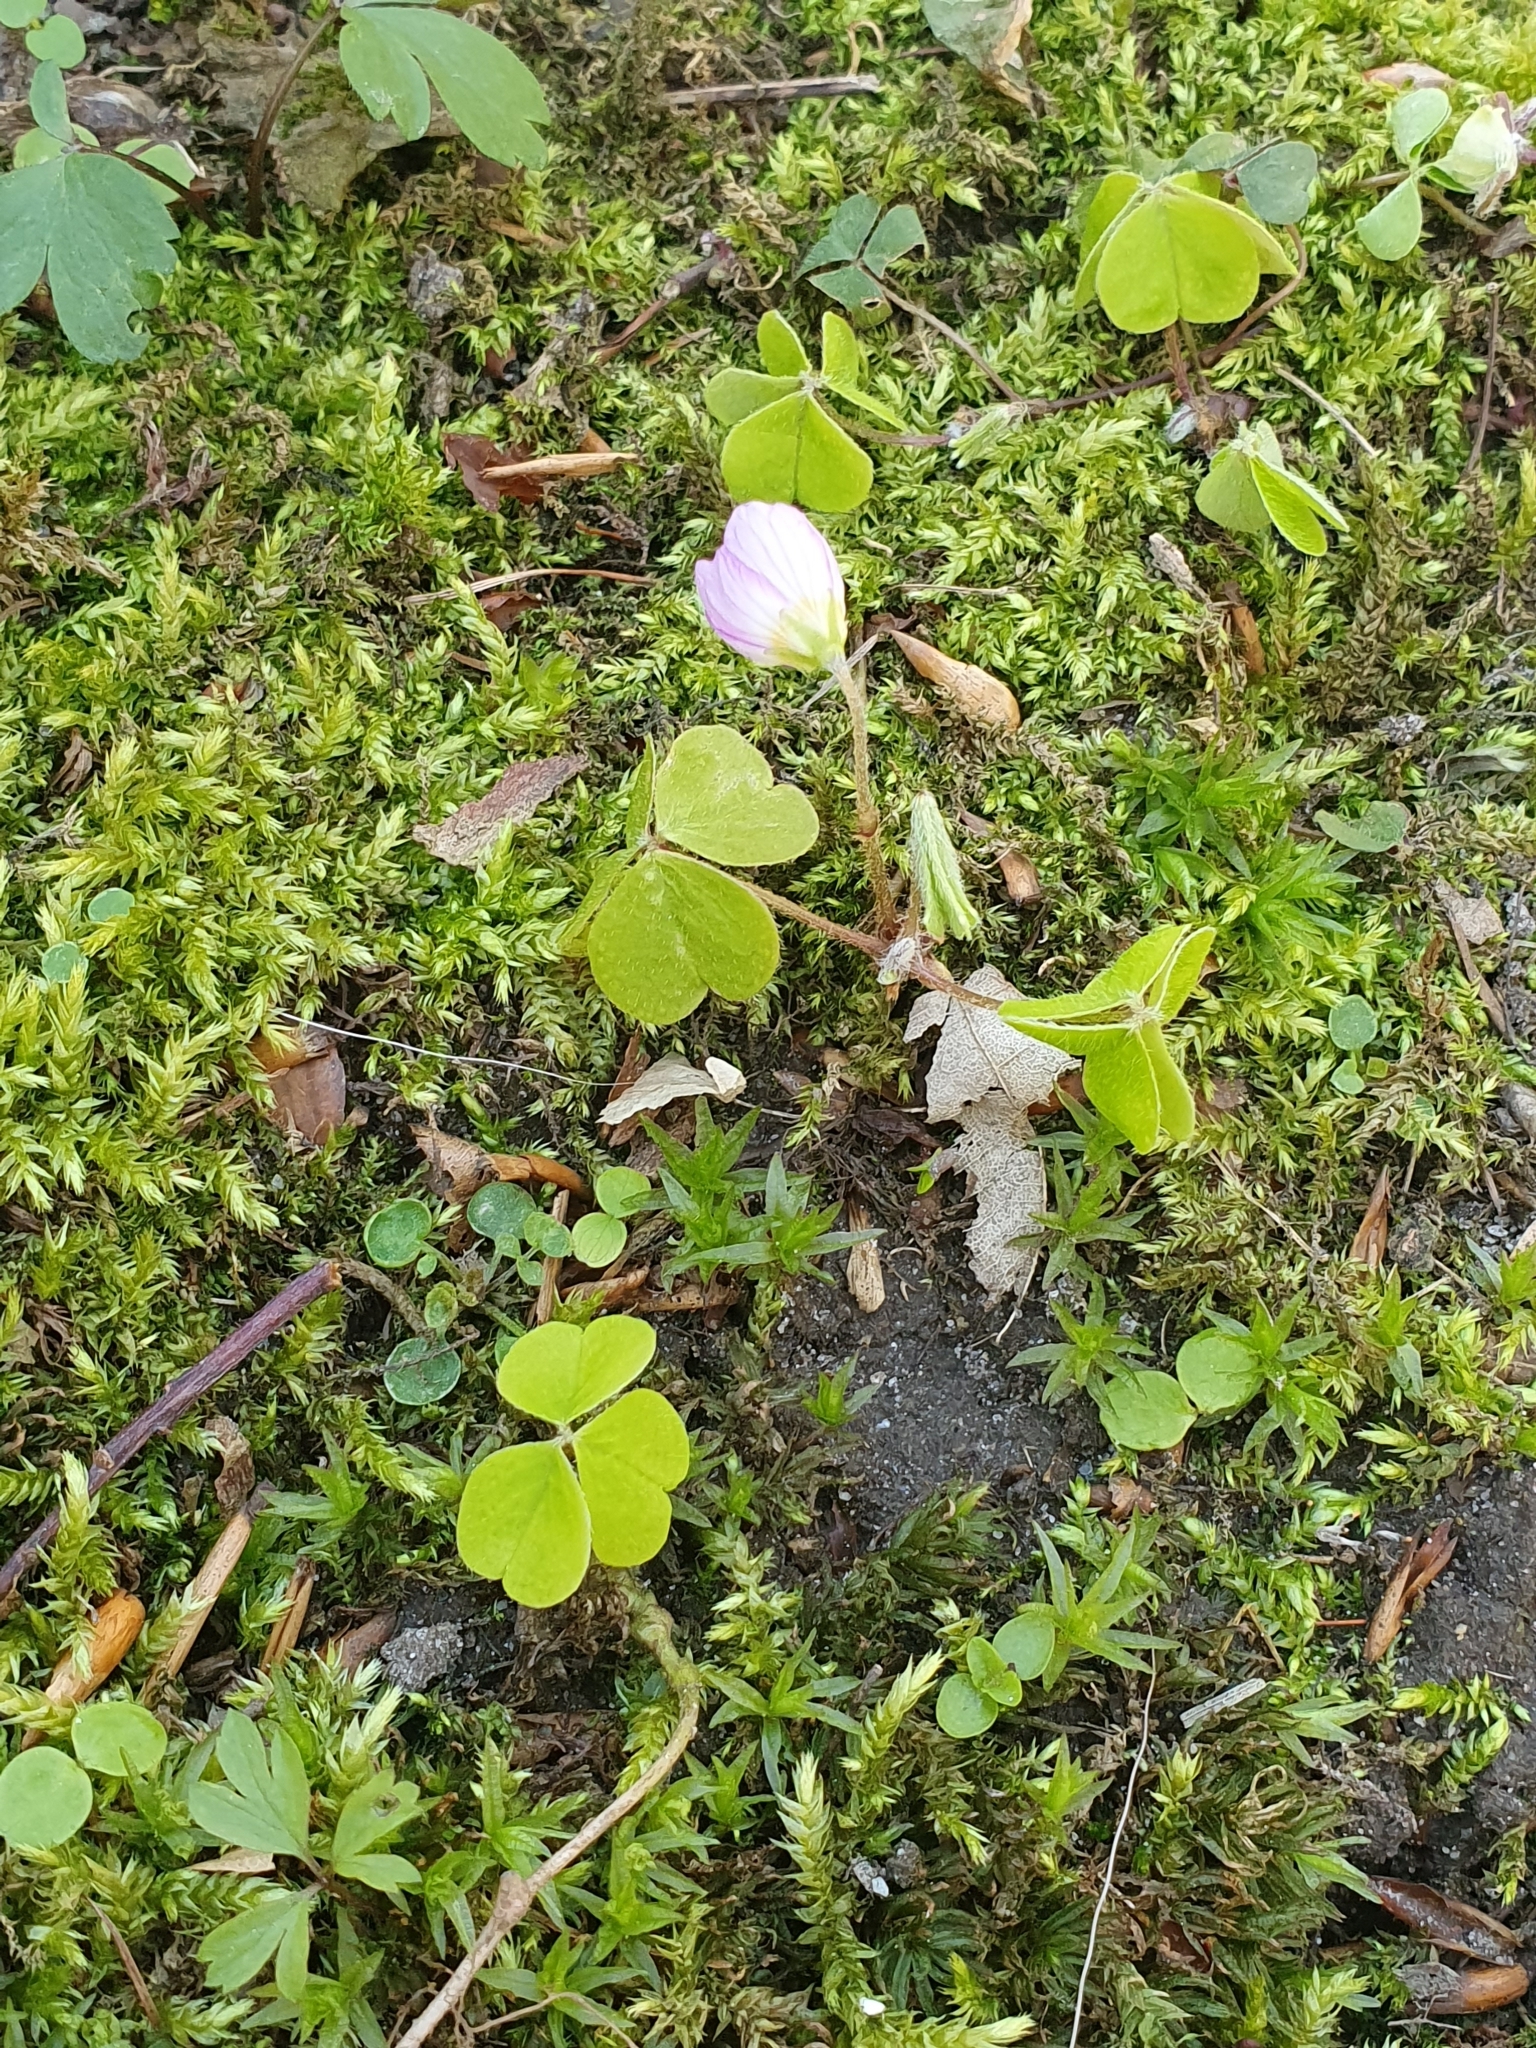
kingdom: Plantae
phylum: Tracheophyta
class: Magnoliopsida
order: Oxalidales
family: Oxalidaceae
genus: Oxalis
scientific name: Oxalis acetosella
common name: Wood-sorrel
